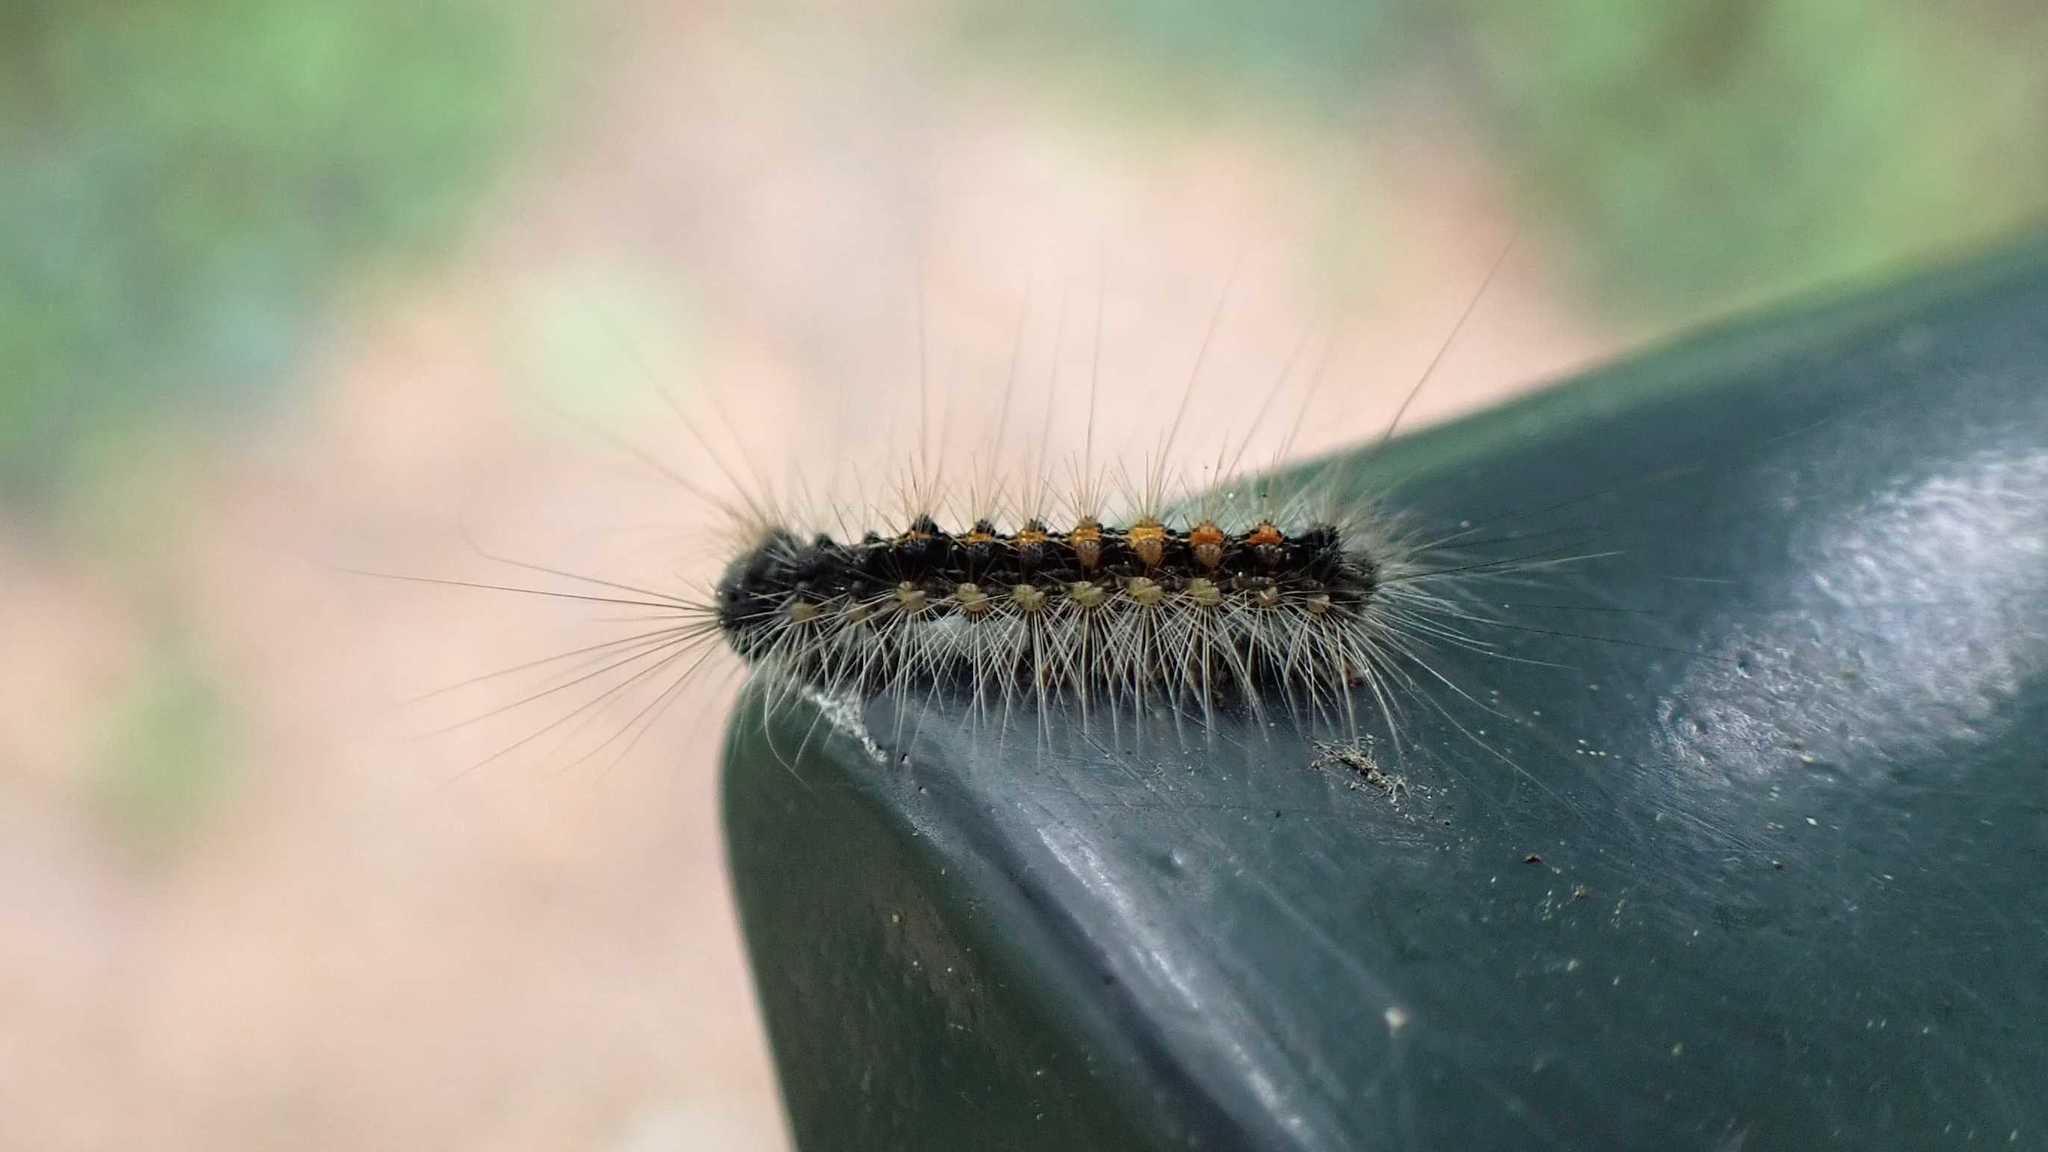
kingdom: Animalia
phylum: Arthropoda
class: Insecta
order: Lepidoptera
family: Erebidae
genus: Lymantria
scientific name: Lymantria dispar
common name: Gypsy moth
